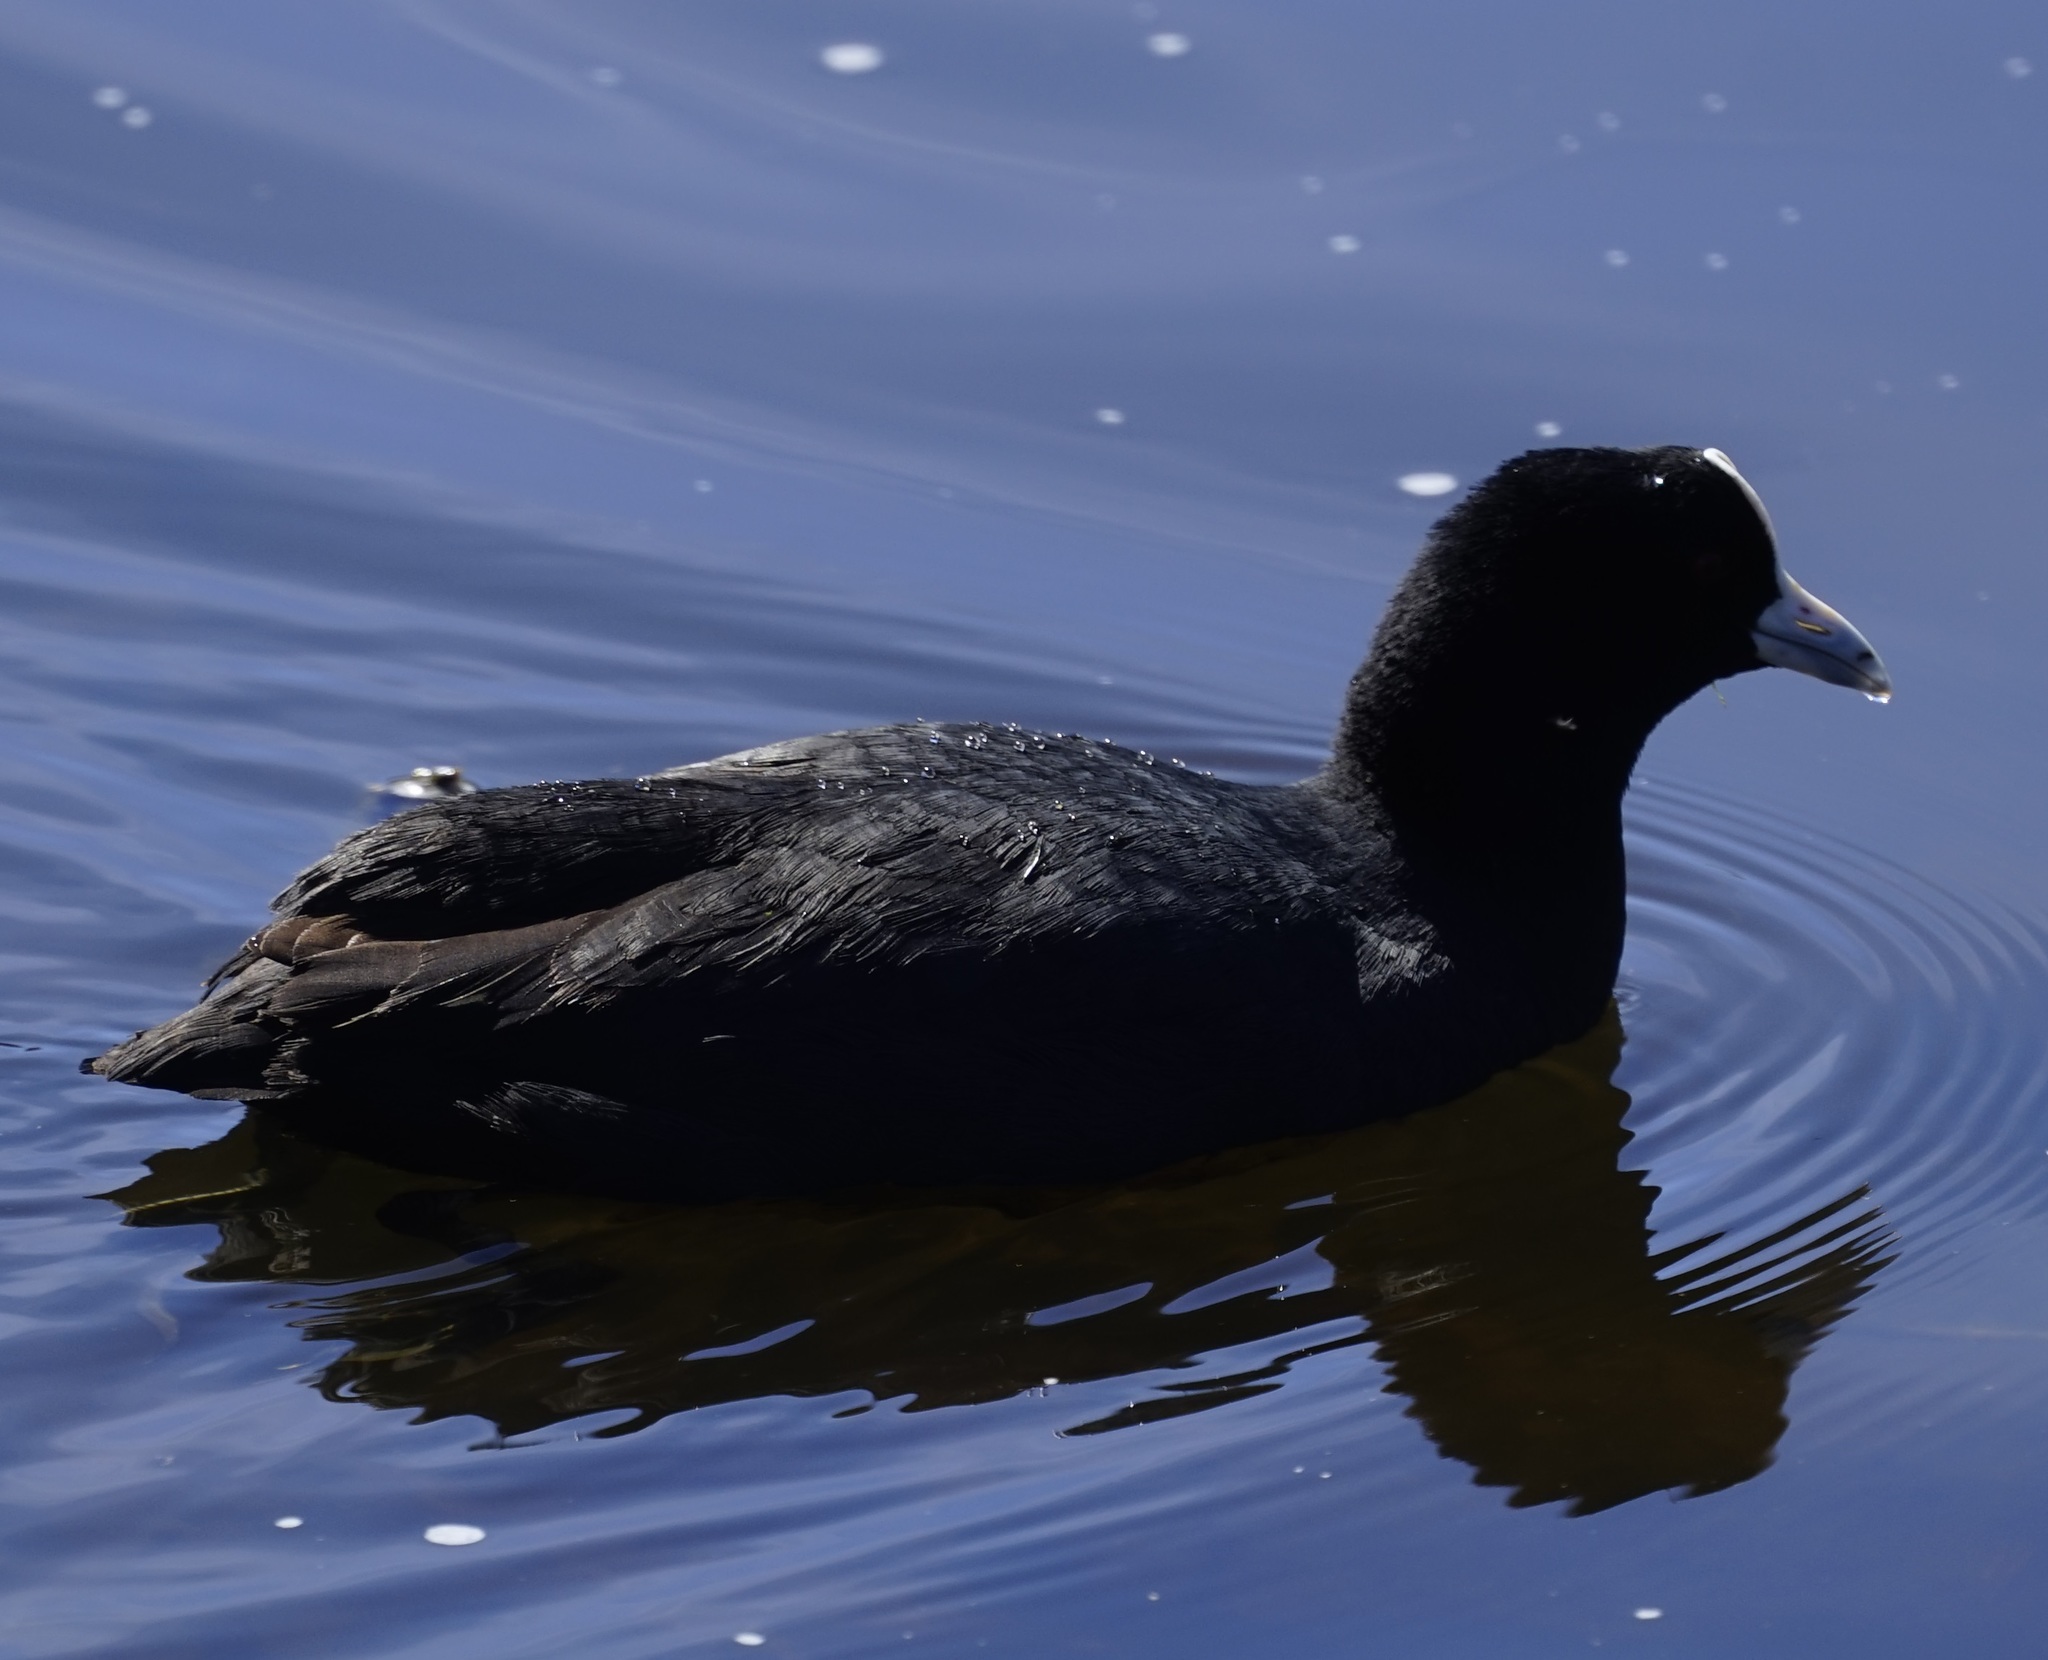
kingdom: Animalia
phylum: Chordata
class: Aves
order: Gruiformes
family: Rallidae
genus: Fulica
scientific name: Fulica atra
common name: Eurasian coot
